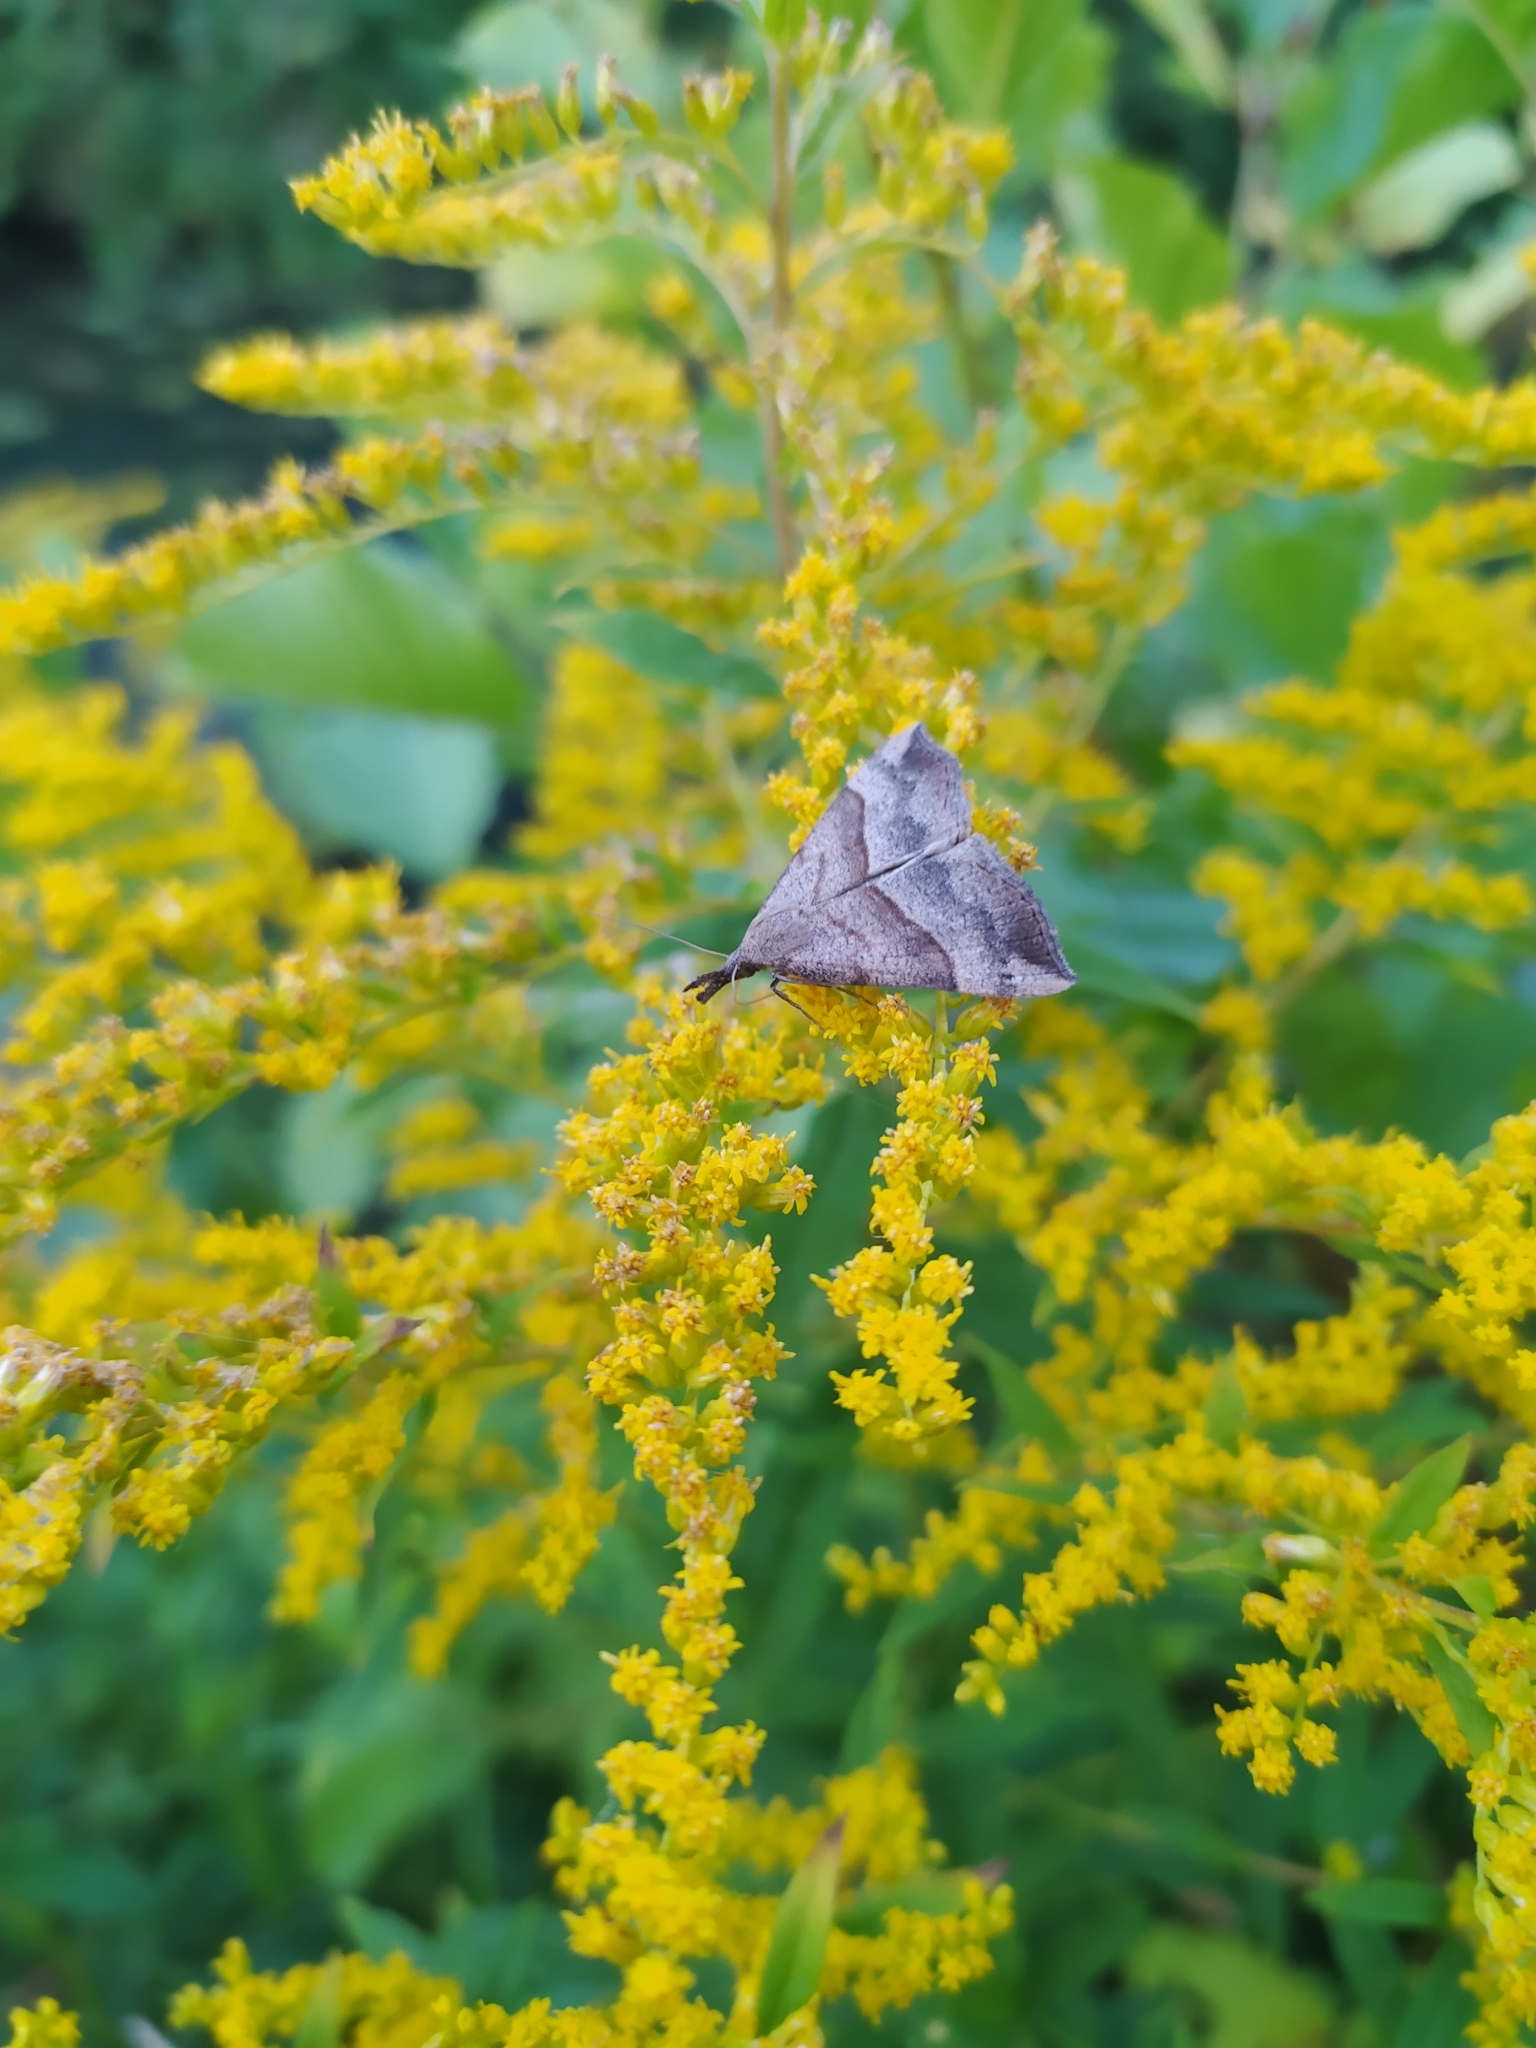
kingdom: Animalia
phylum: Arthropoda
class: Insecta
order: Lepidoptera
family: Erebidae
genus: Hypena
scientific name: Hypena proboscidalis
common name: Snout
